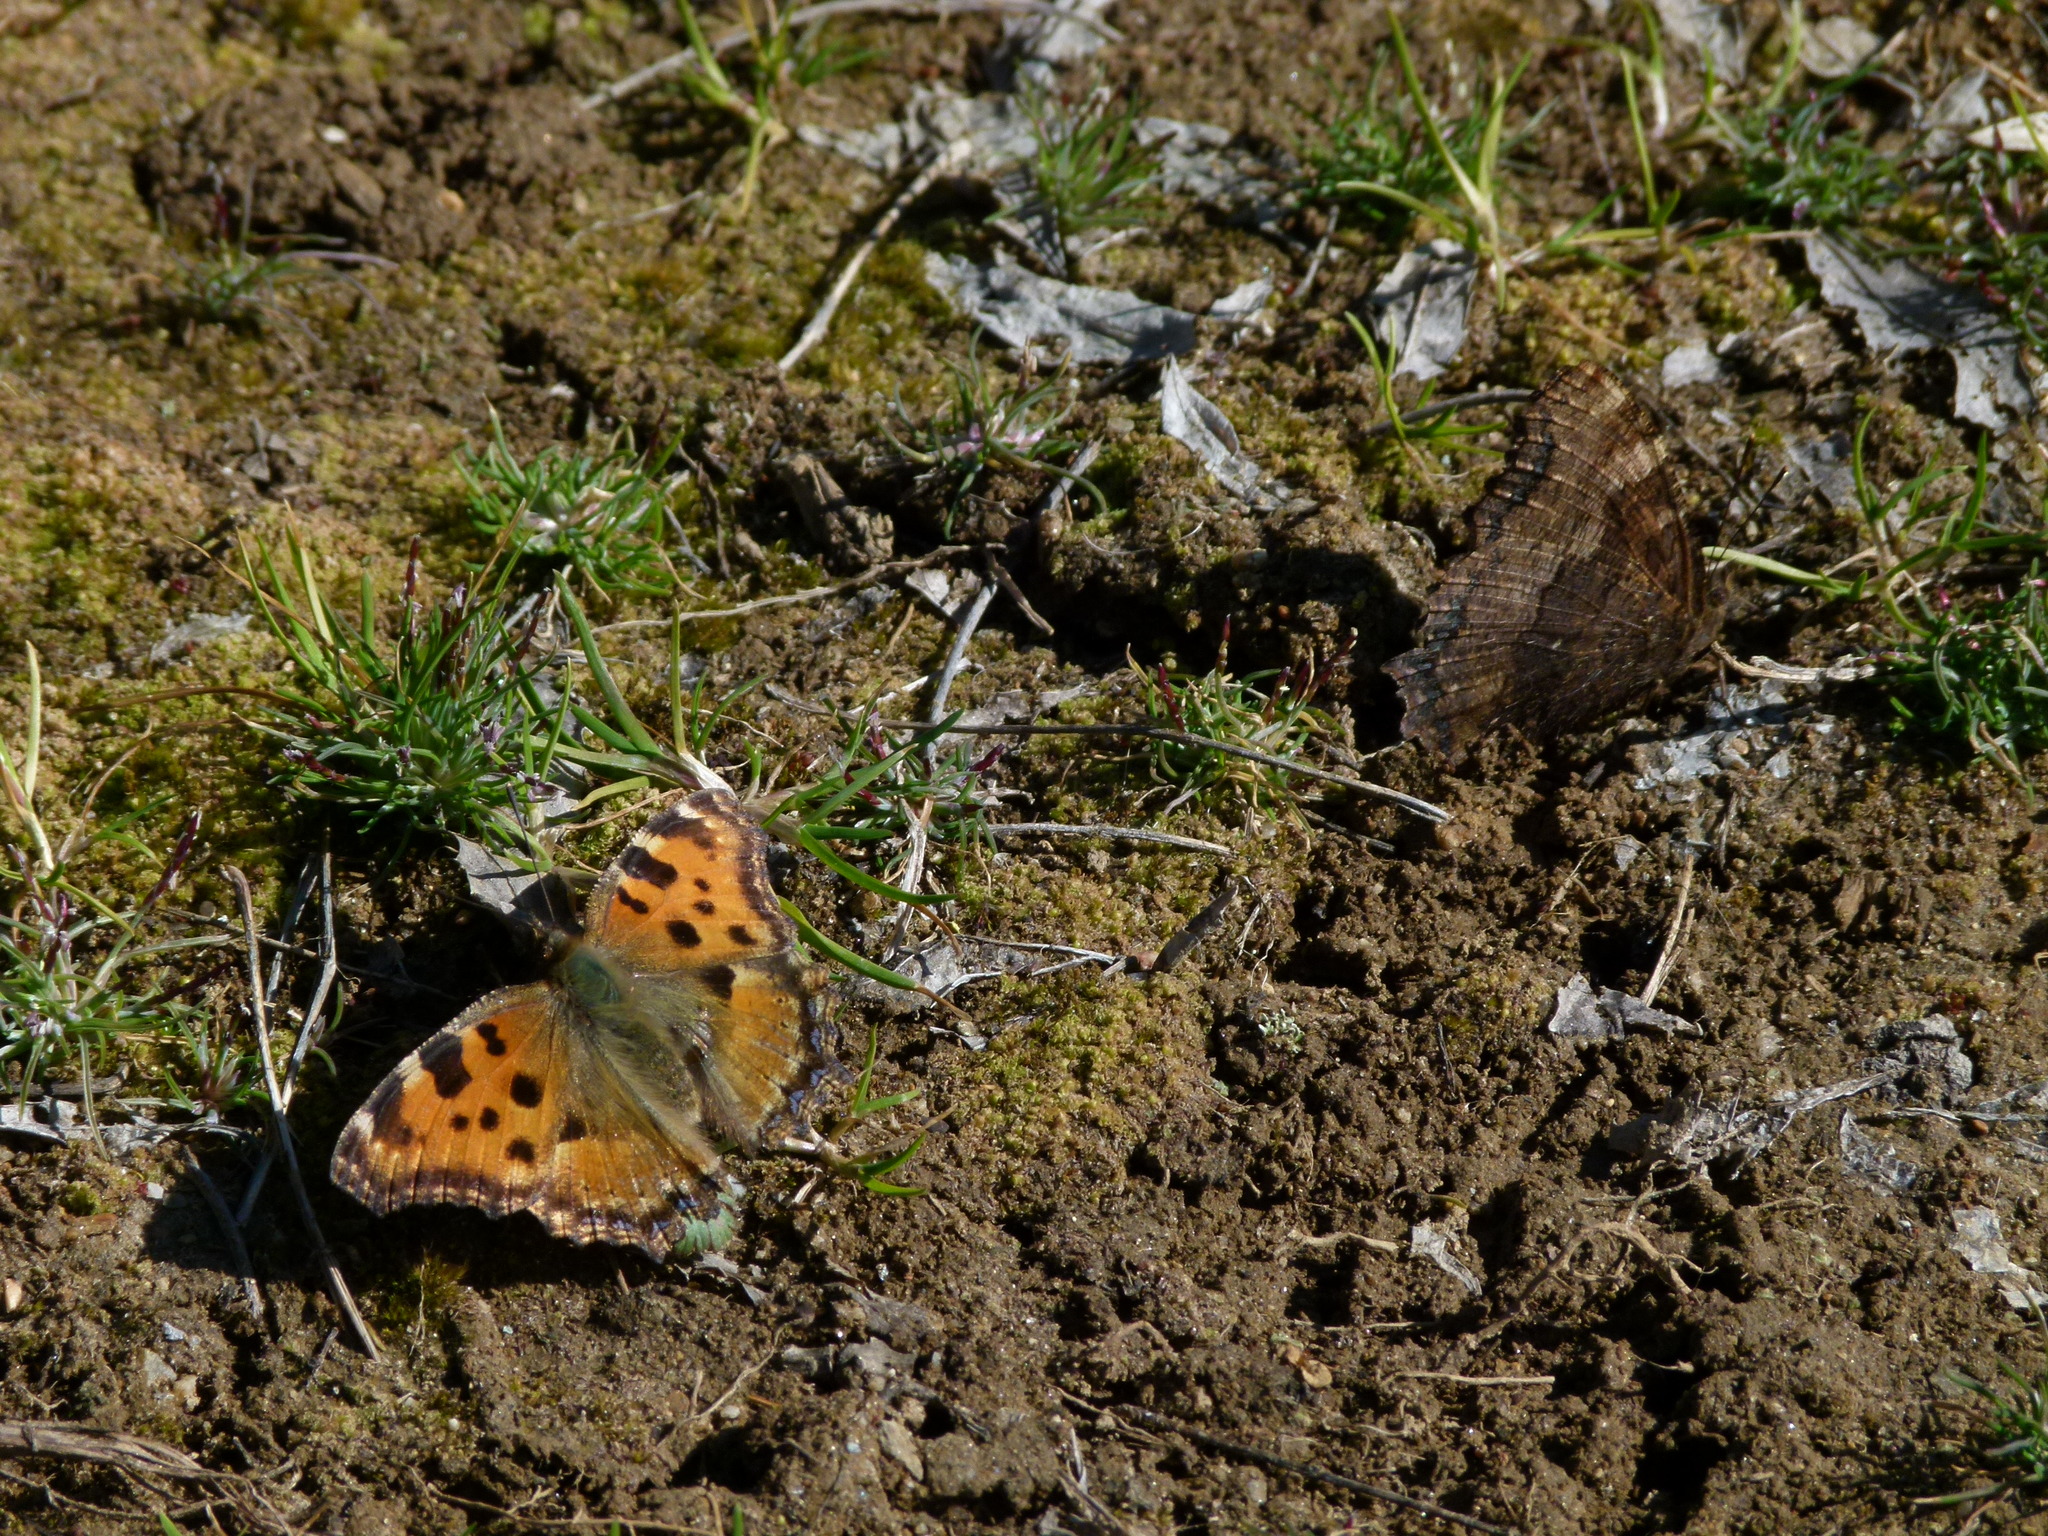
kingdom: Animalia
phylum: Arthropoda
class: Insecta
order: Lepidoptera
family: Nymphalidae
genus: Nymphalis
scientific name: Nymphalis polychloros
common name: Large tortoiseshell
